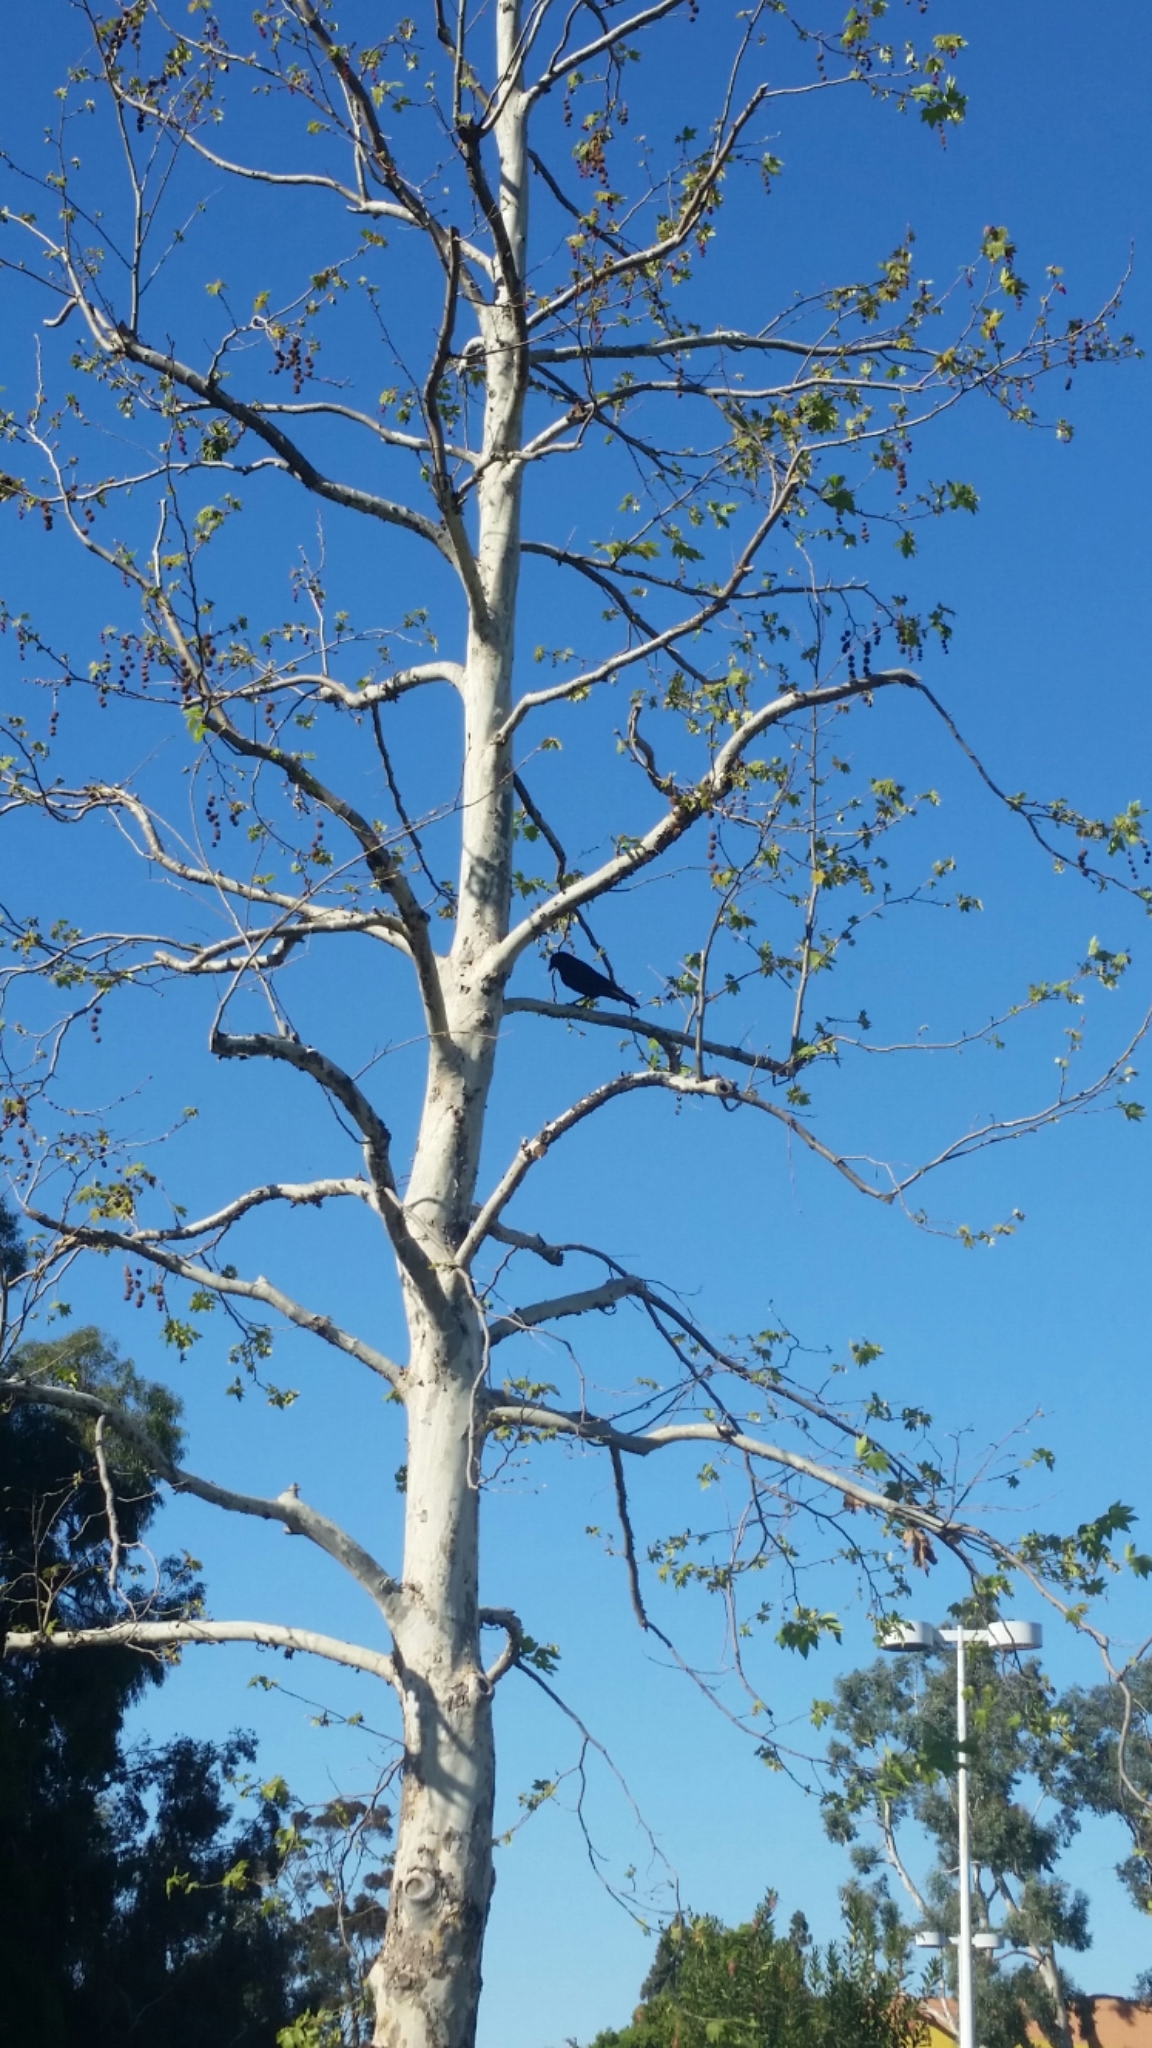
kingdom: Animalia
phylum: Chordata
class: Aves
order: Passeriformes
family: Corvidae
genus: Corvus
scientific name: Corvus brachyrhynchos
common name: American crow
